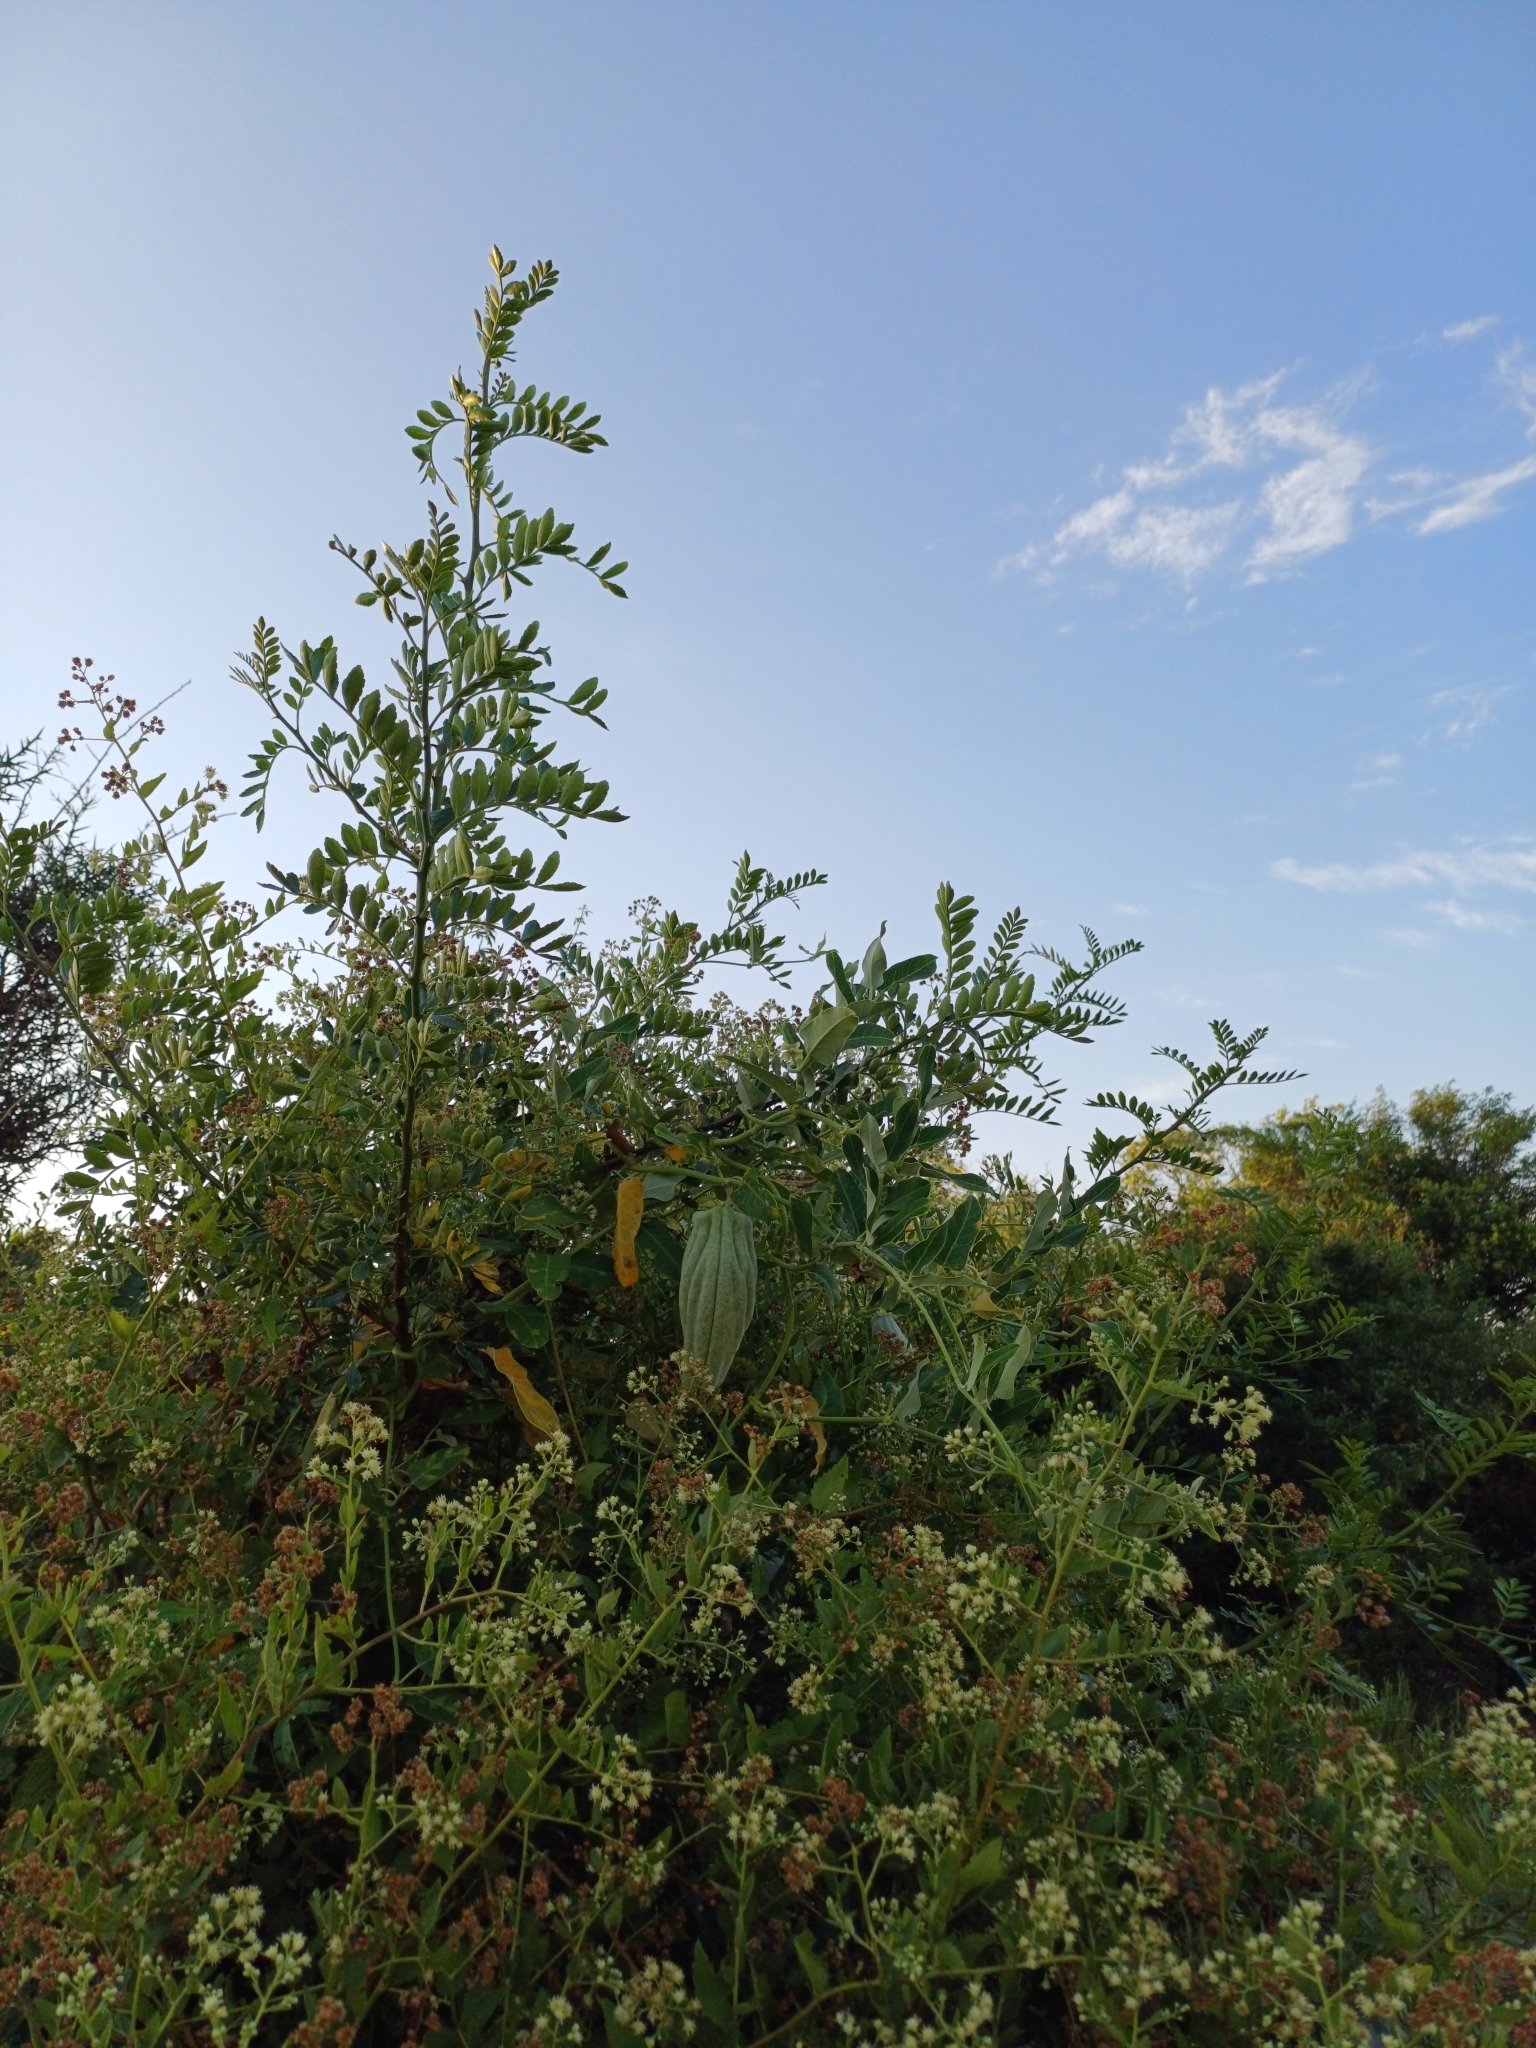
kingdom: Plantae
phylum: Tracheophyta
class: Magnoliopsida
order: Gentianales
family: Apocynaceae
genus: Araujia
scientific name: Araujia sericifera
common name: White bladderflower
